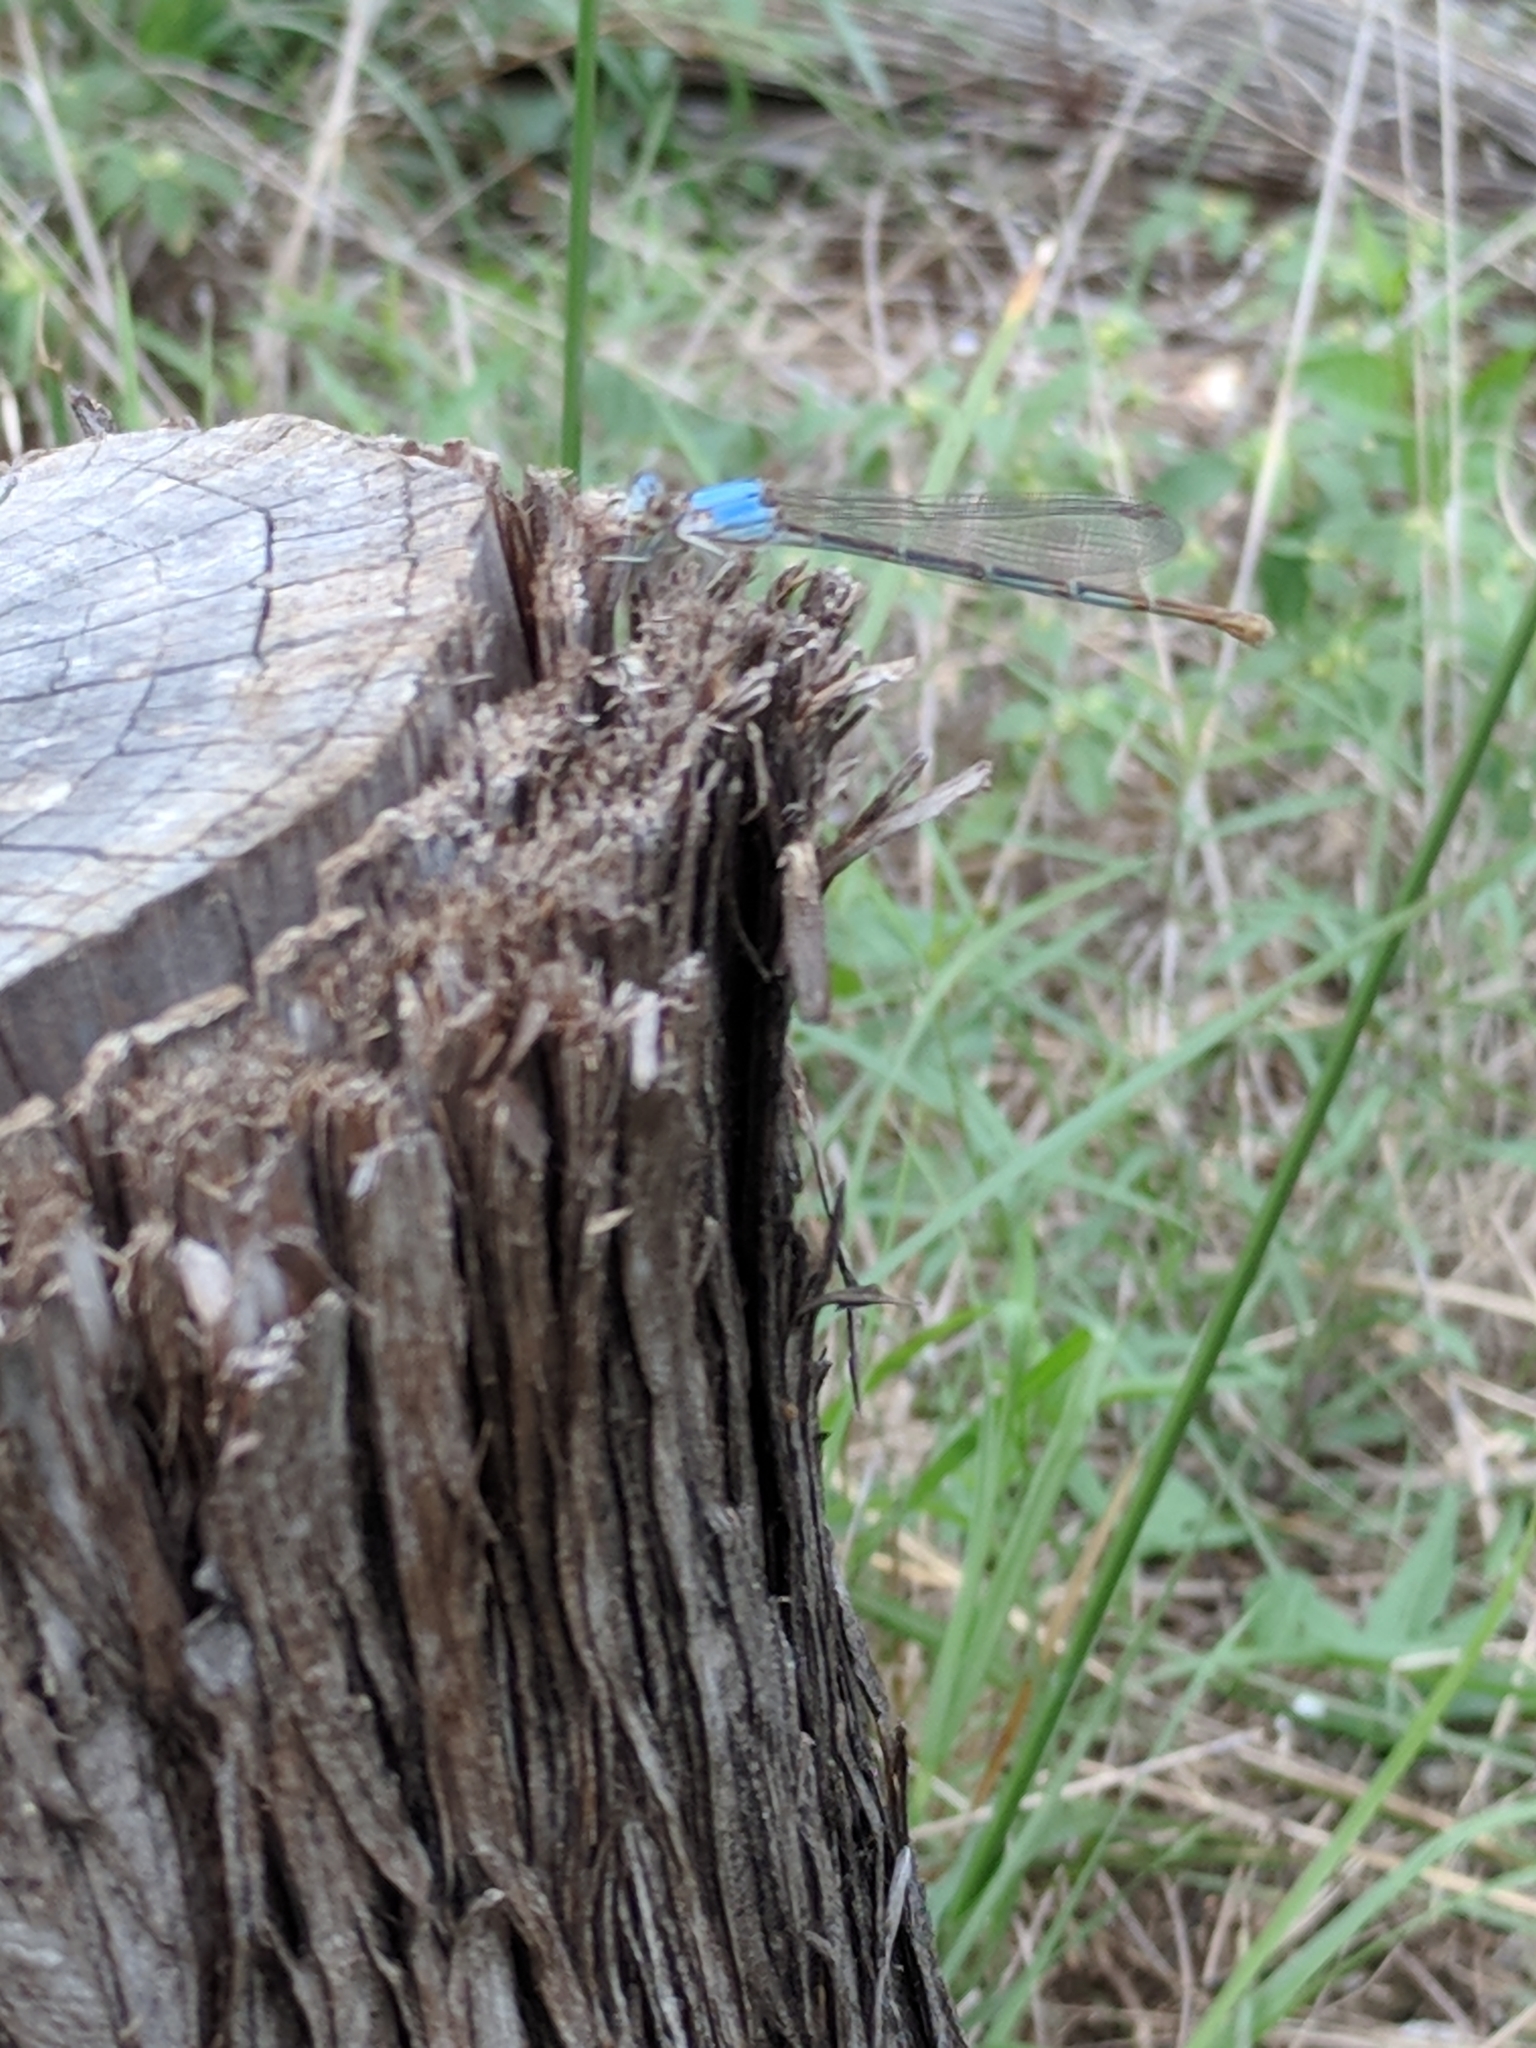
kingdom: Animalia
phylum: Arthropoda
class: Insecta
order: Odonata
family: Coenagrionidae
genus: Argia
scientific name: Argia moesta
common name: Powdered dancer
